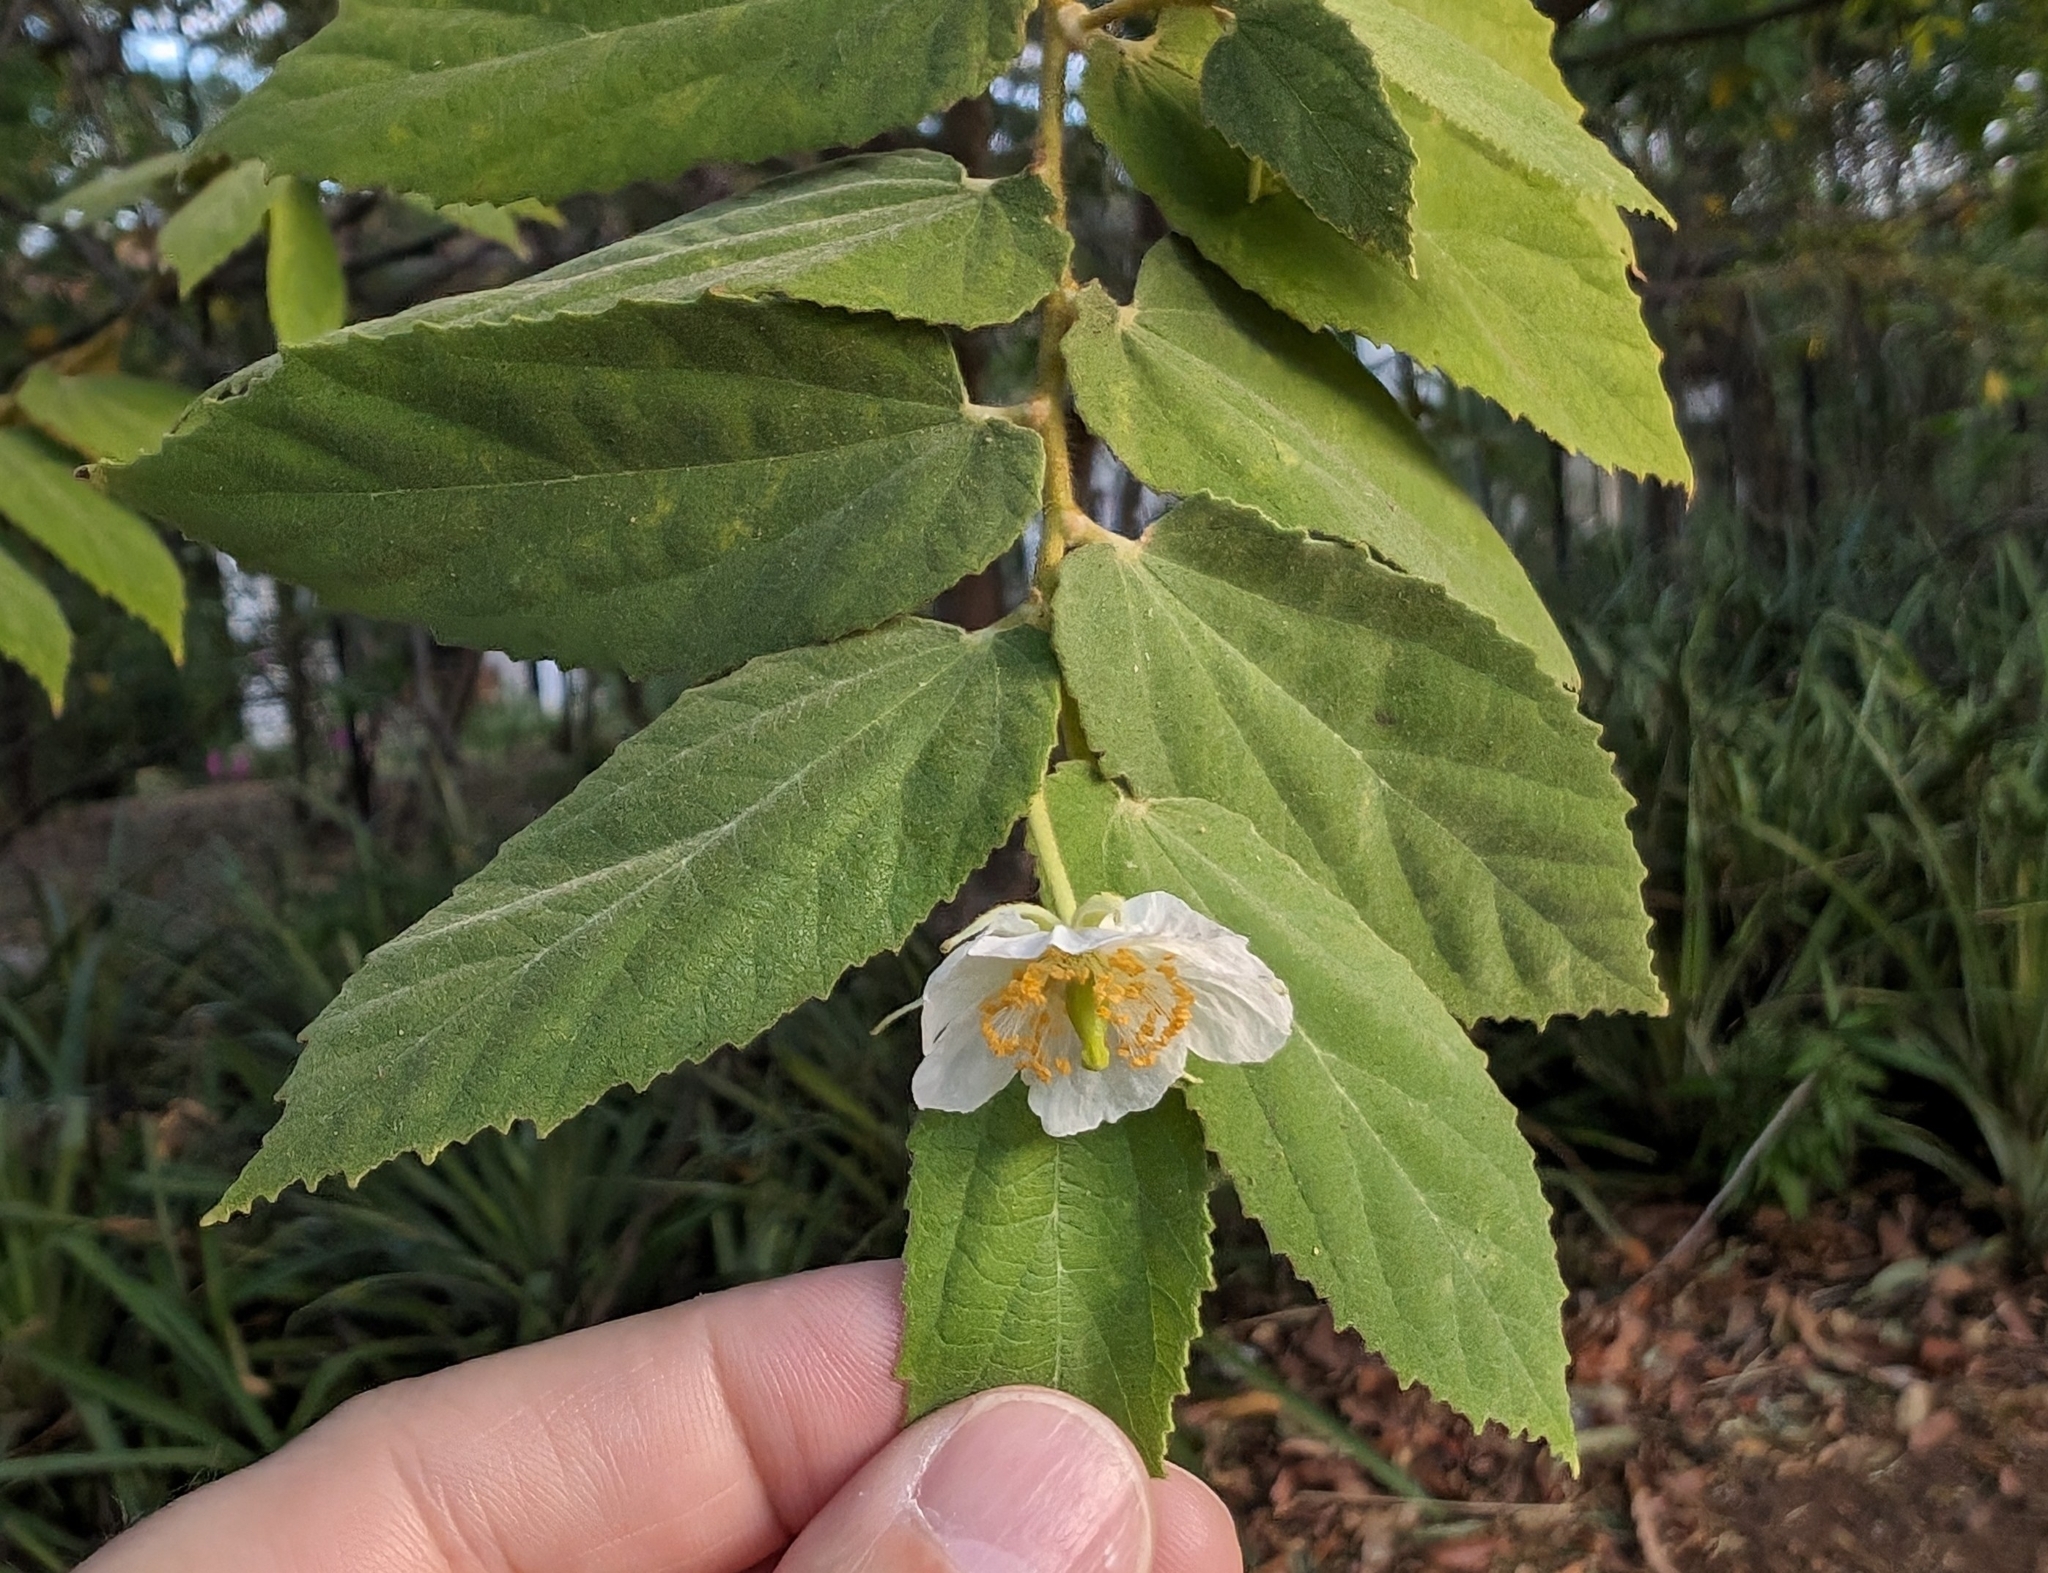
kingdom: Plantae
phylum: Tracheophyta
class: Magnoliopsida
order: Malvales
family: Muntingiaceae
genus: Muntingia
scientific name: Muntingia calabura
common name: Strawberrytree
